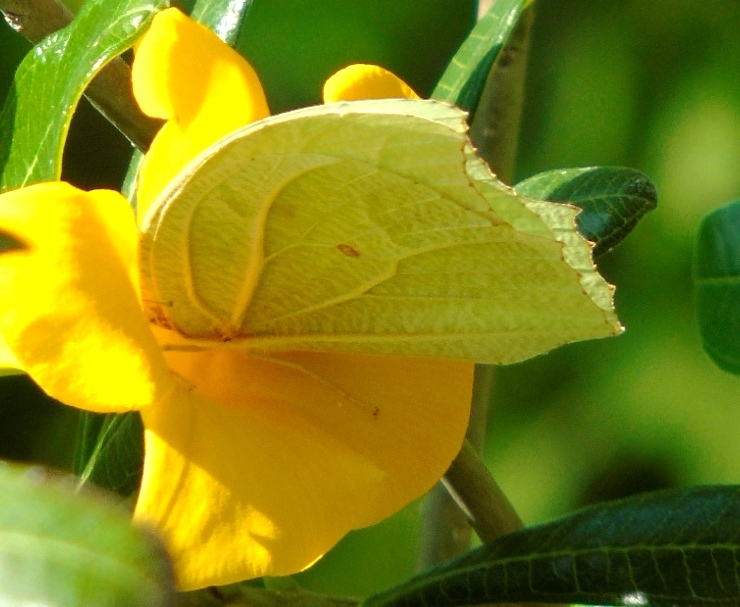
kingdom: Animalia
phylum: Arthropoda
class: Insecta
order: Lepidoptera
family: Pieridae
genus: Anteos
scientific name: Anteos clorinde
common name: White angled sulphur
